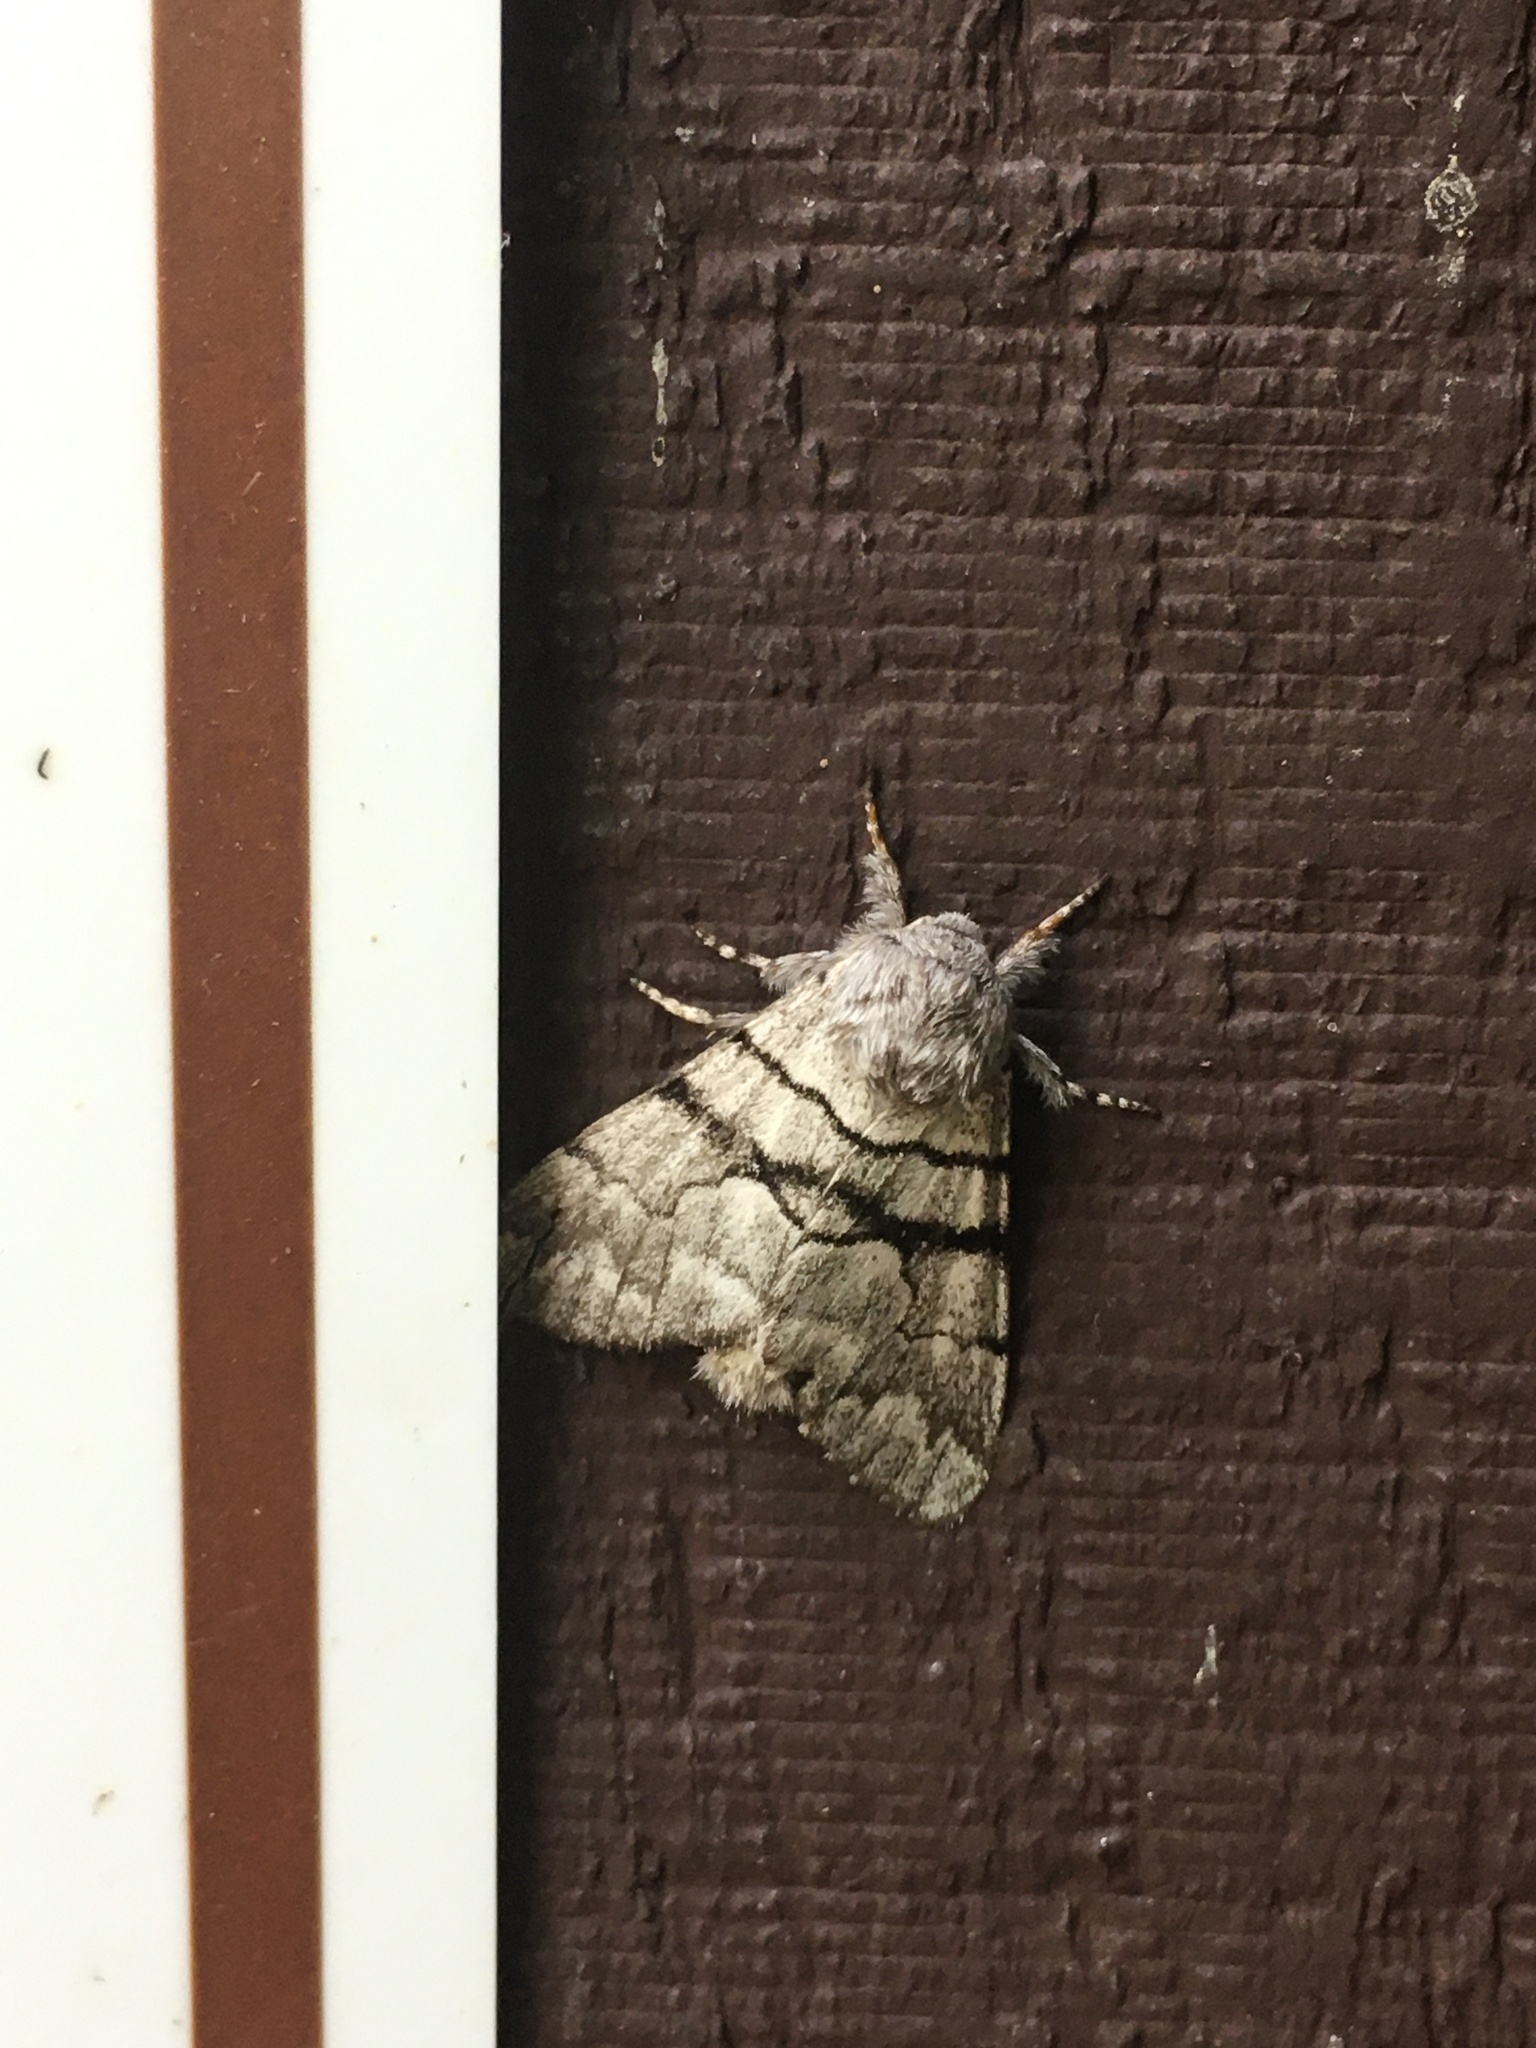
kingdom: Animalia
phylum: Arthropoda
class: Insecta
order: Lepidoptera
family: Noctuidae
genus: Panthea
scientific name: Panthea furcilla
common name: Eastern panthea moth
